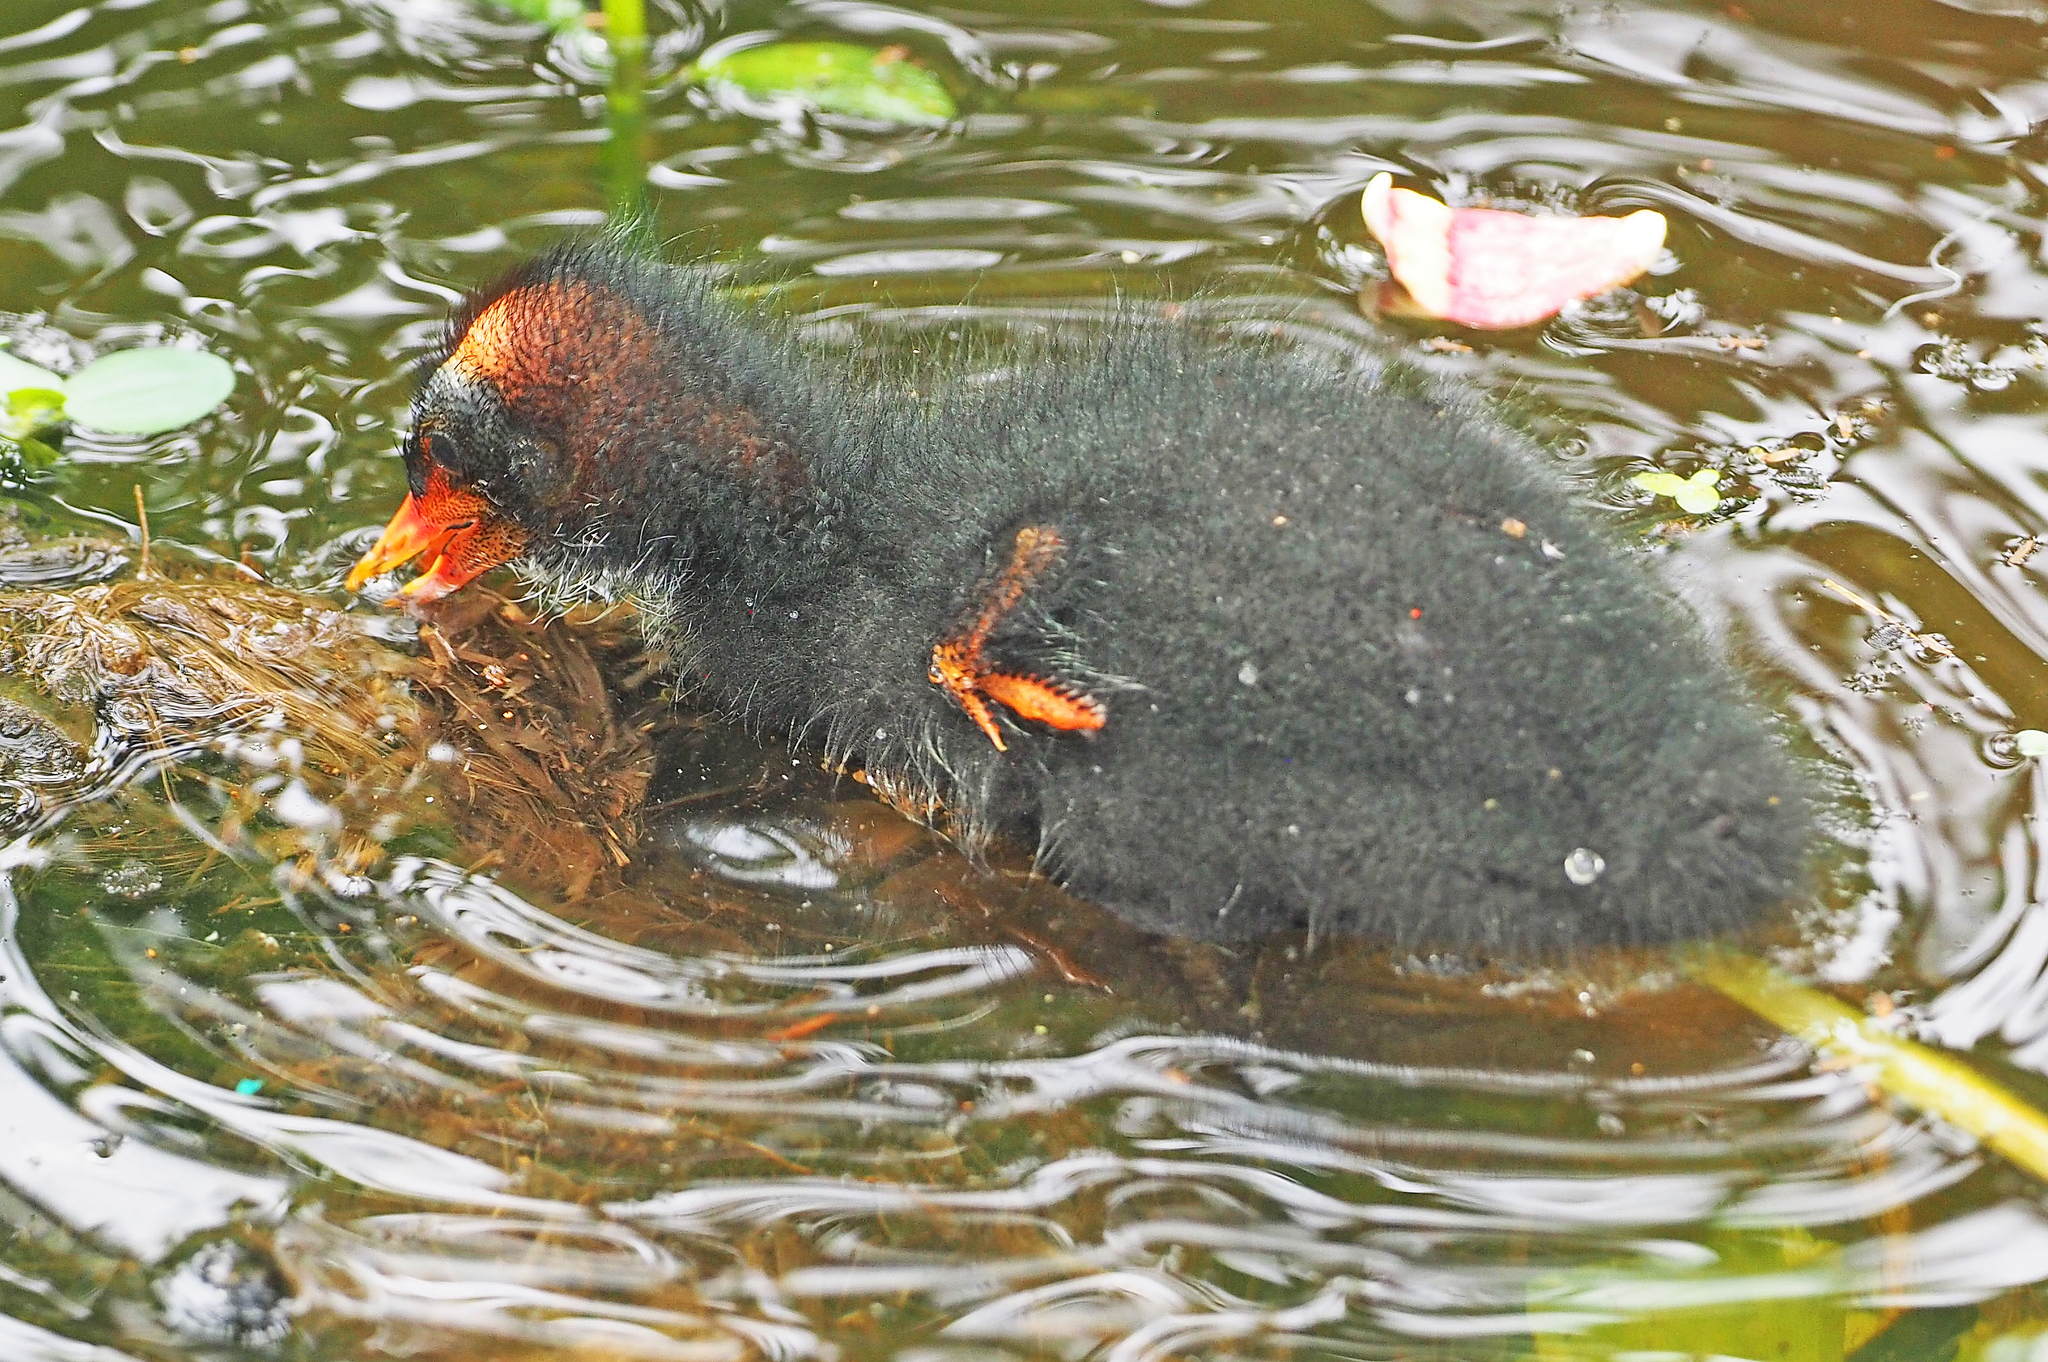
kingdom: Animalia
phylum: Chordata
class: Aves
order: Gruiformes
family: Rallidae
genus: Gallinula
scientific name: Gallinula chloropus
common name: Common moorhen
